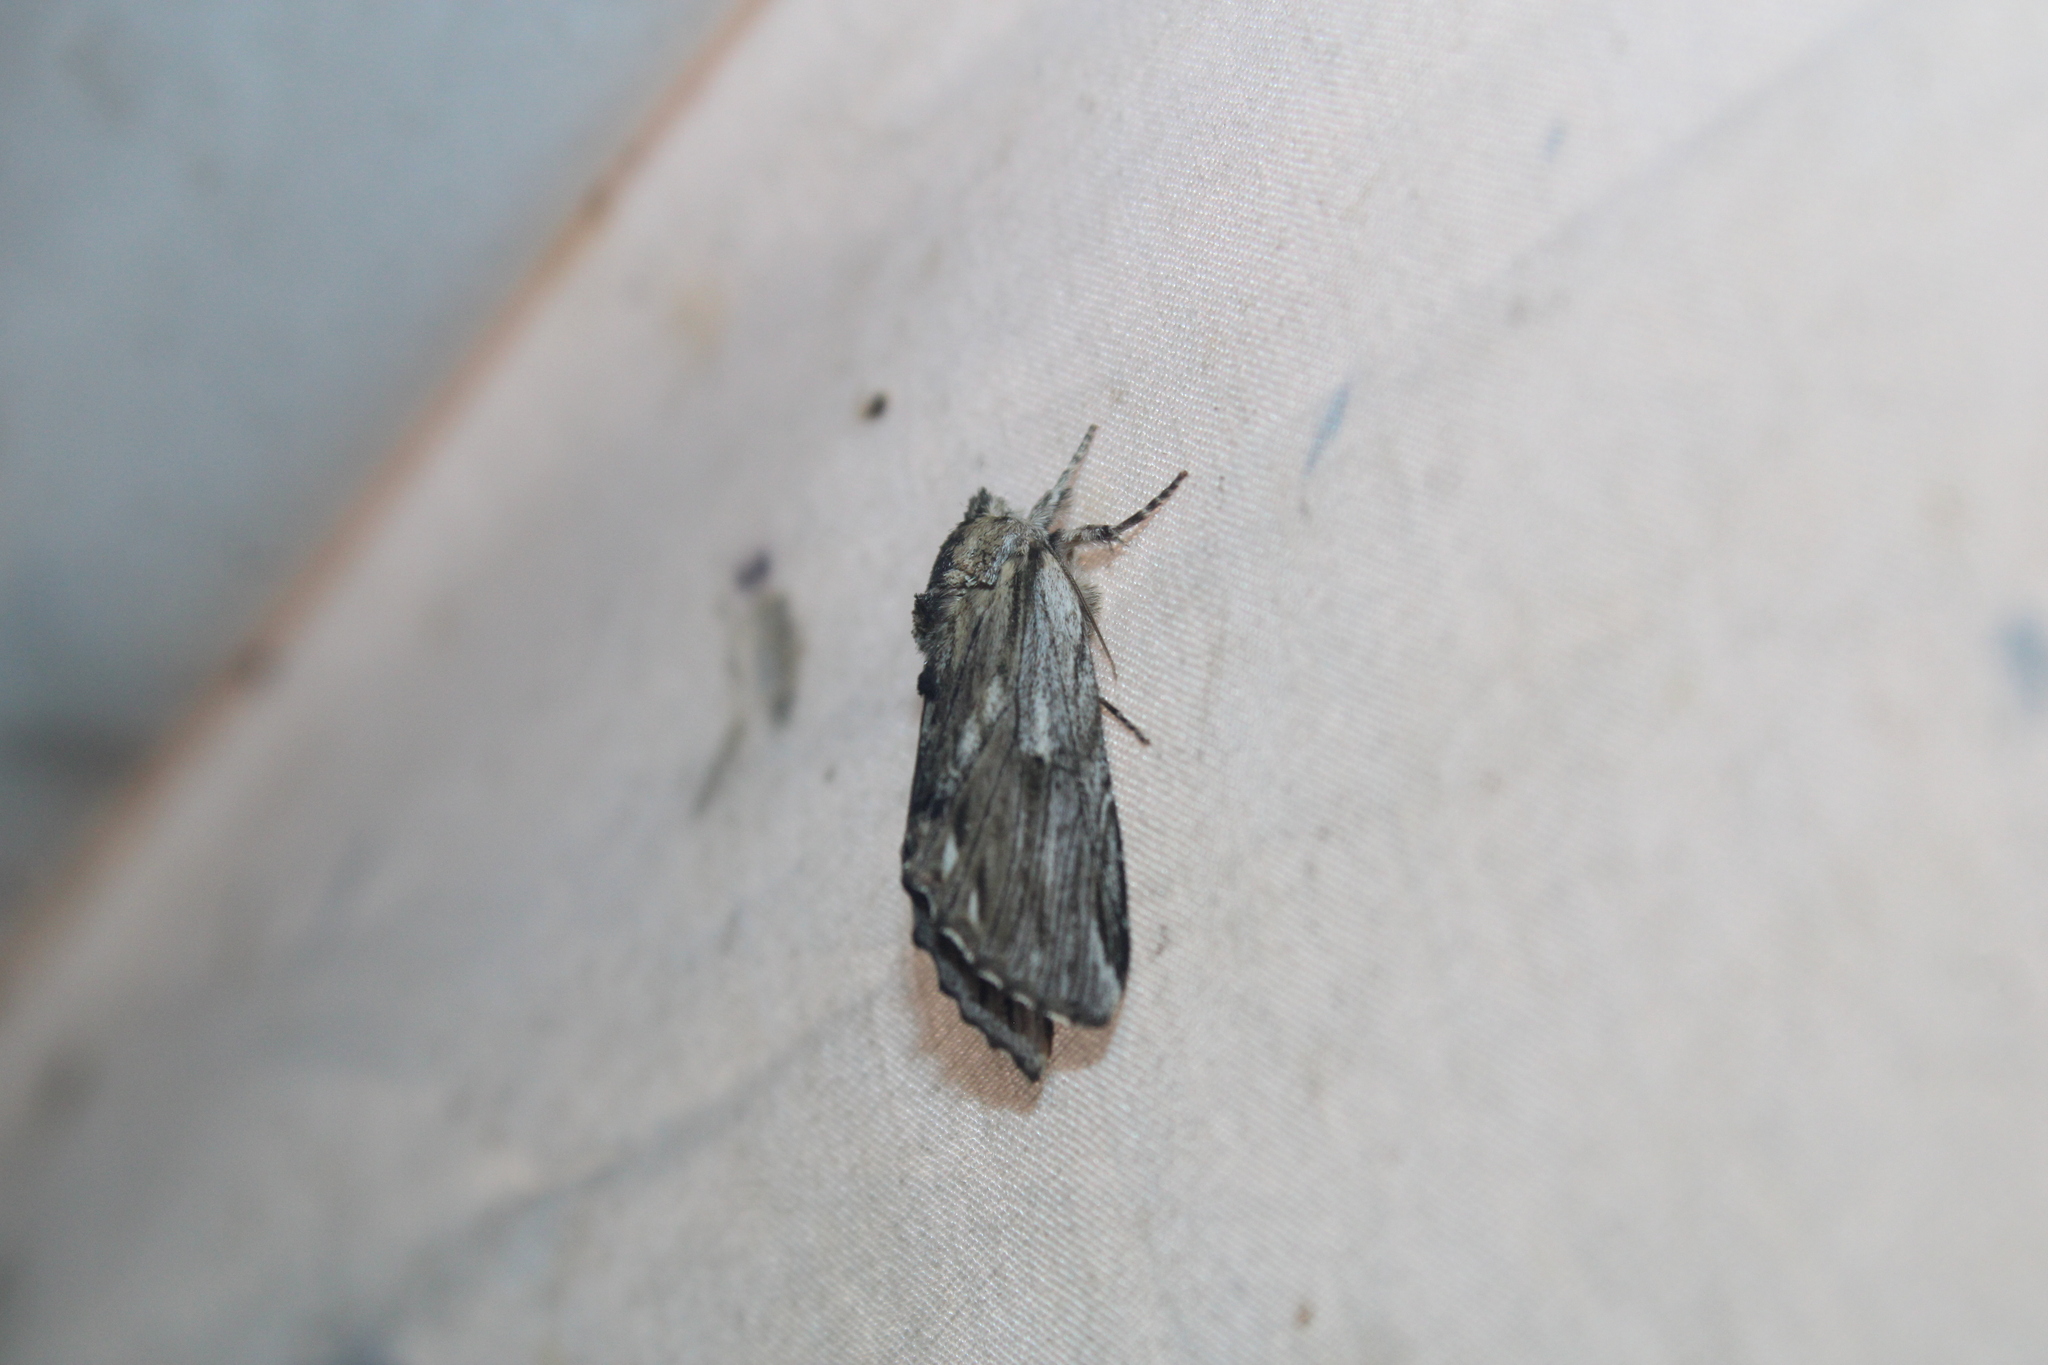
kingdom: Animalia
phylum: Arthropoda
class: Insecta
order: Lepidoptera
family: Notodontidae
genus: Oligocentria
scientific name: Oligocentria Ianassa lignicolor
